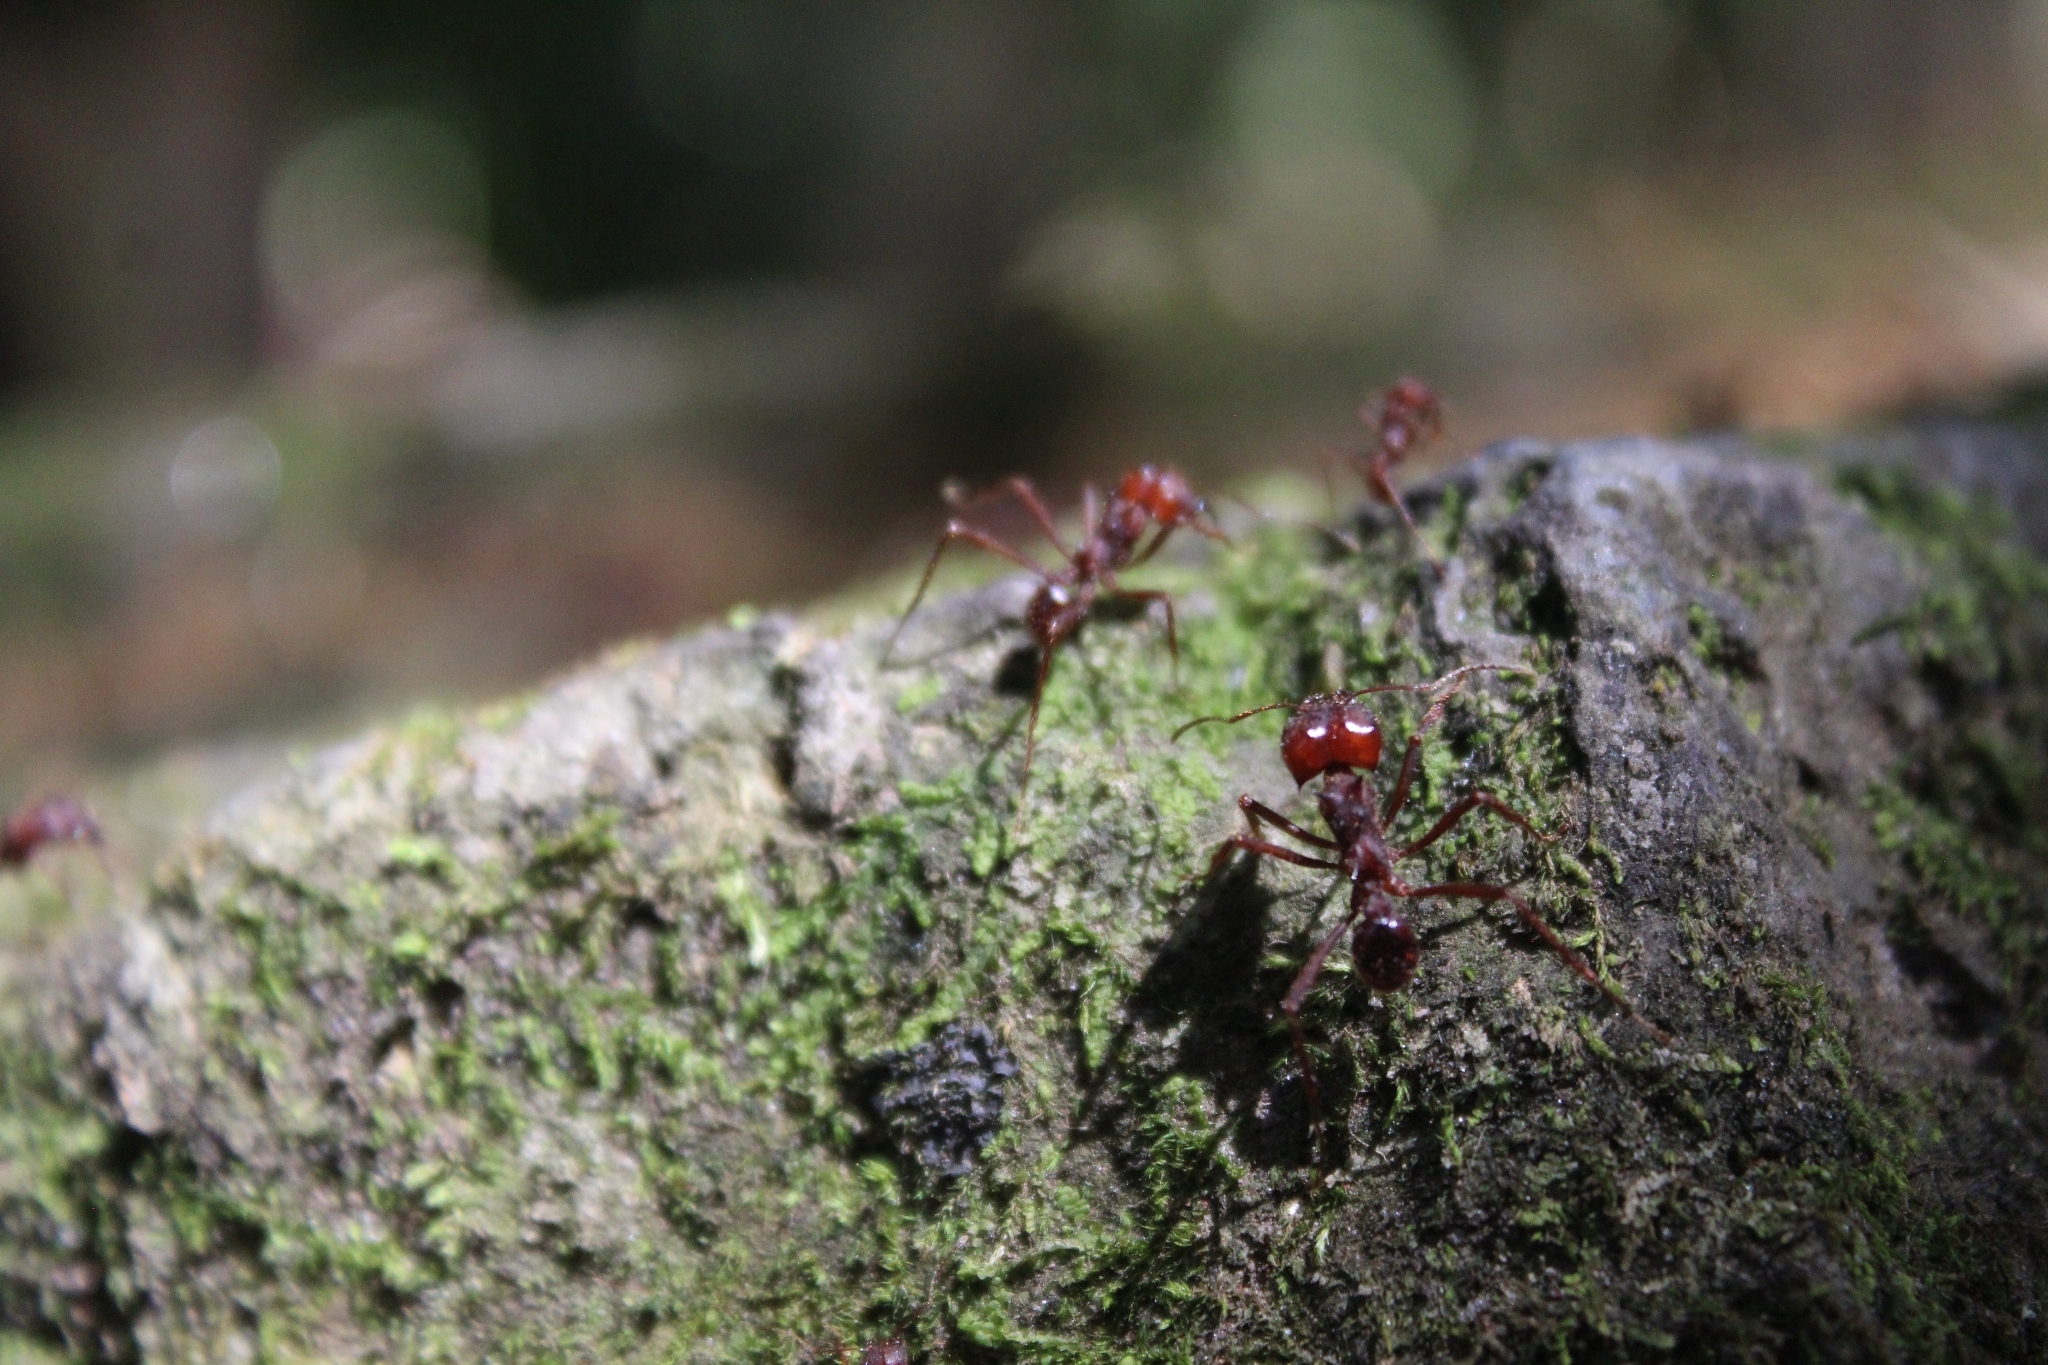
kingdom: Animalia
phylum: Arthropoda
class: Insecta
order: Hymenoptera
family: Formicidae
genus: Atta
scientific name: Atta mexicana
